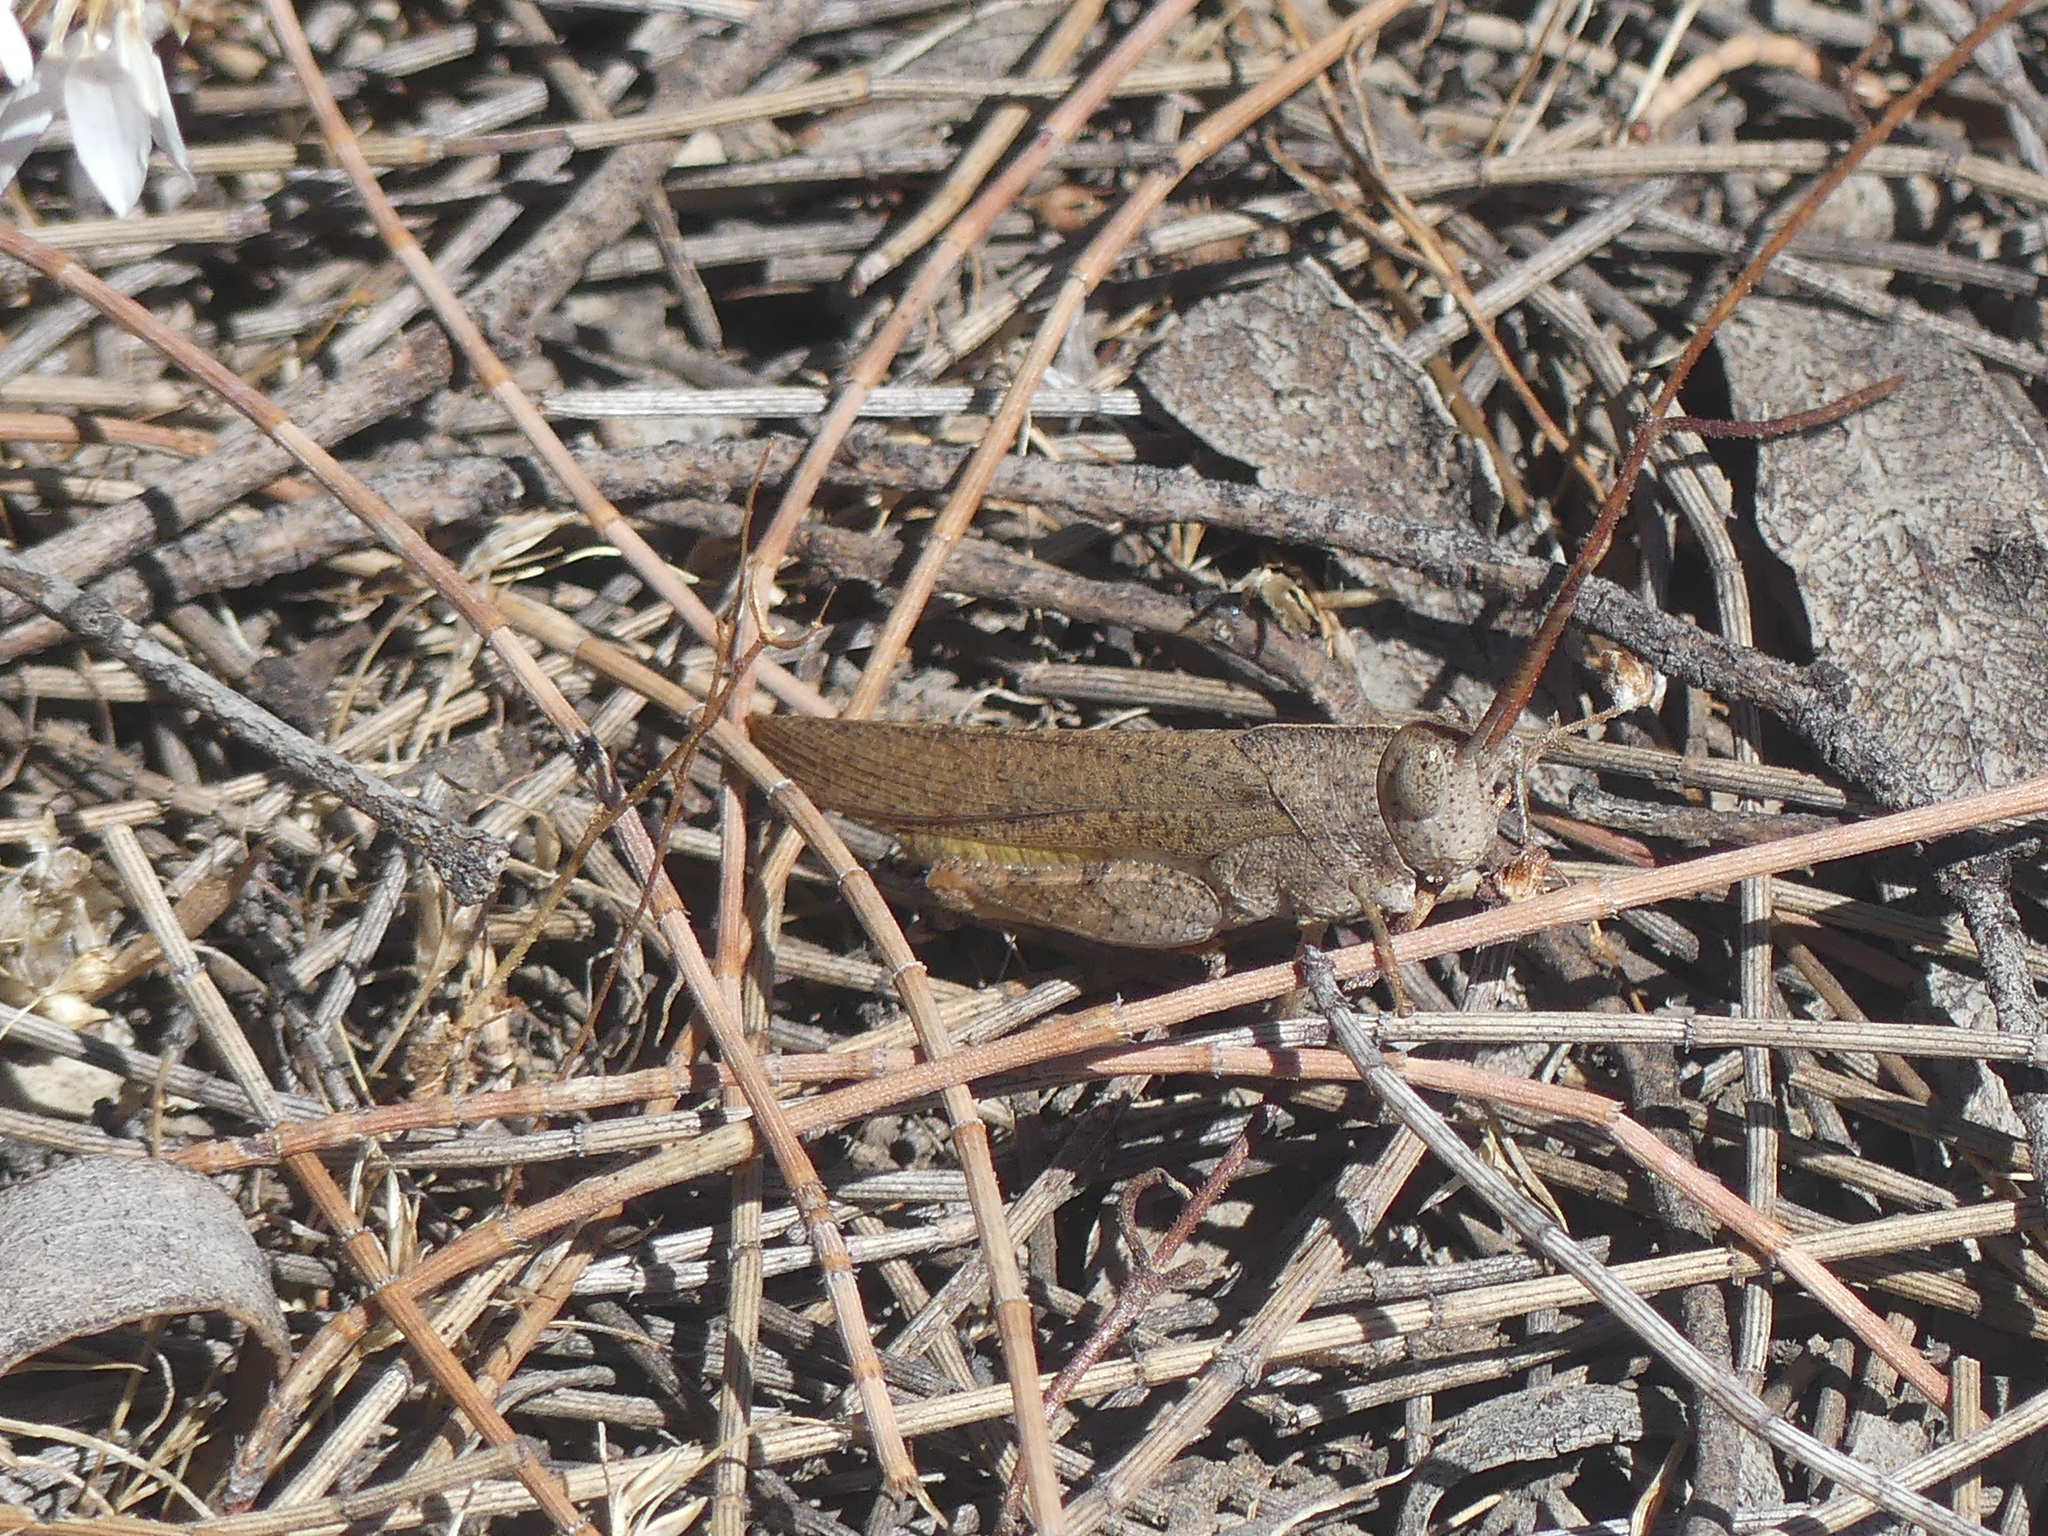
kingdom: Animalia
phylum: Arthropoda
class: Insecta
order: Orthoptera
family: Acrididae
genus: Goniaea
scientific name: Goniaea australasiae
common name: Gumleaf grasshopper
